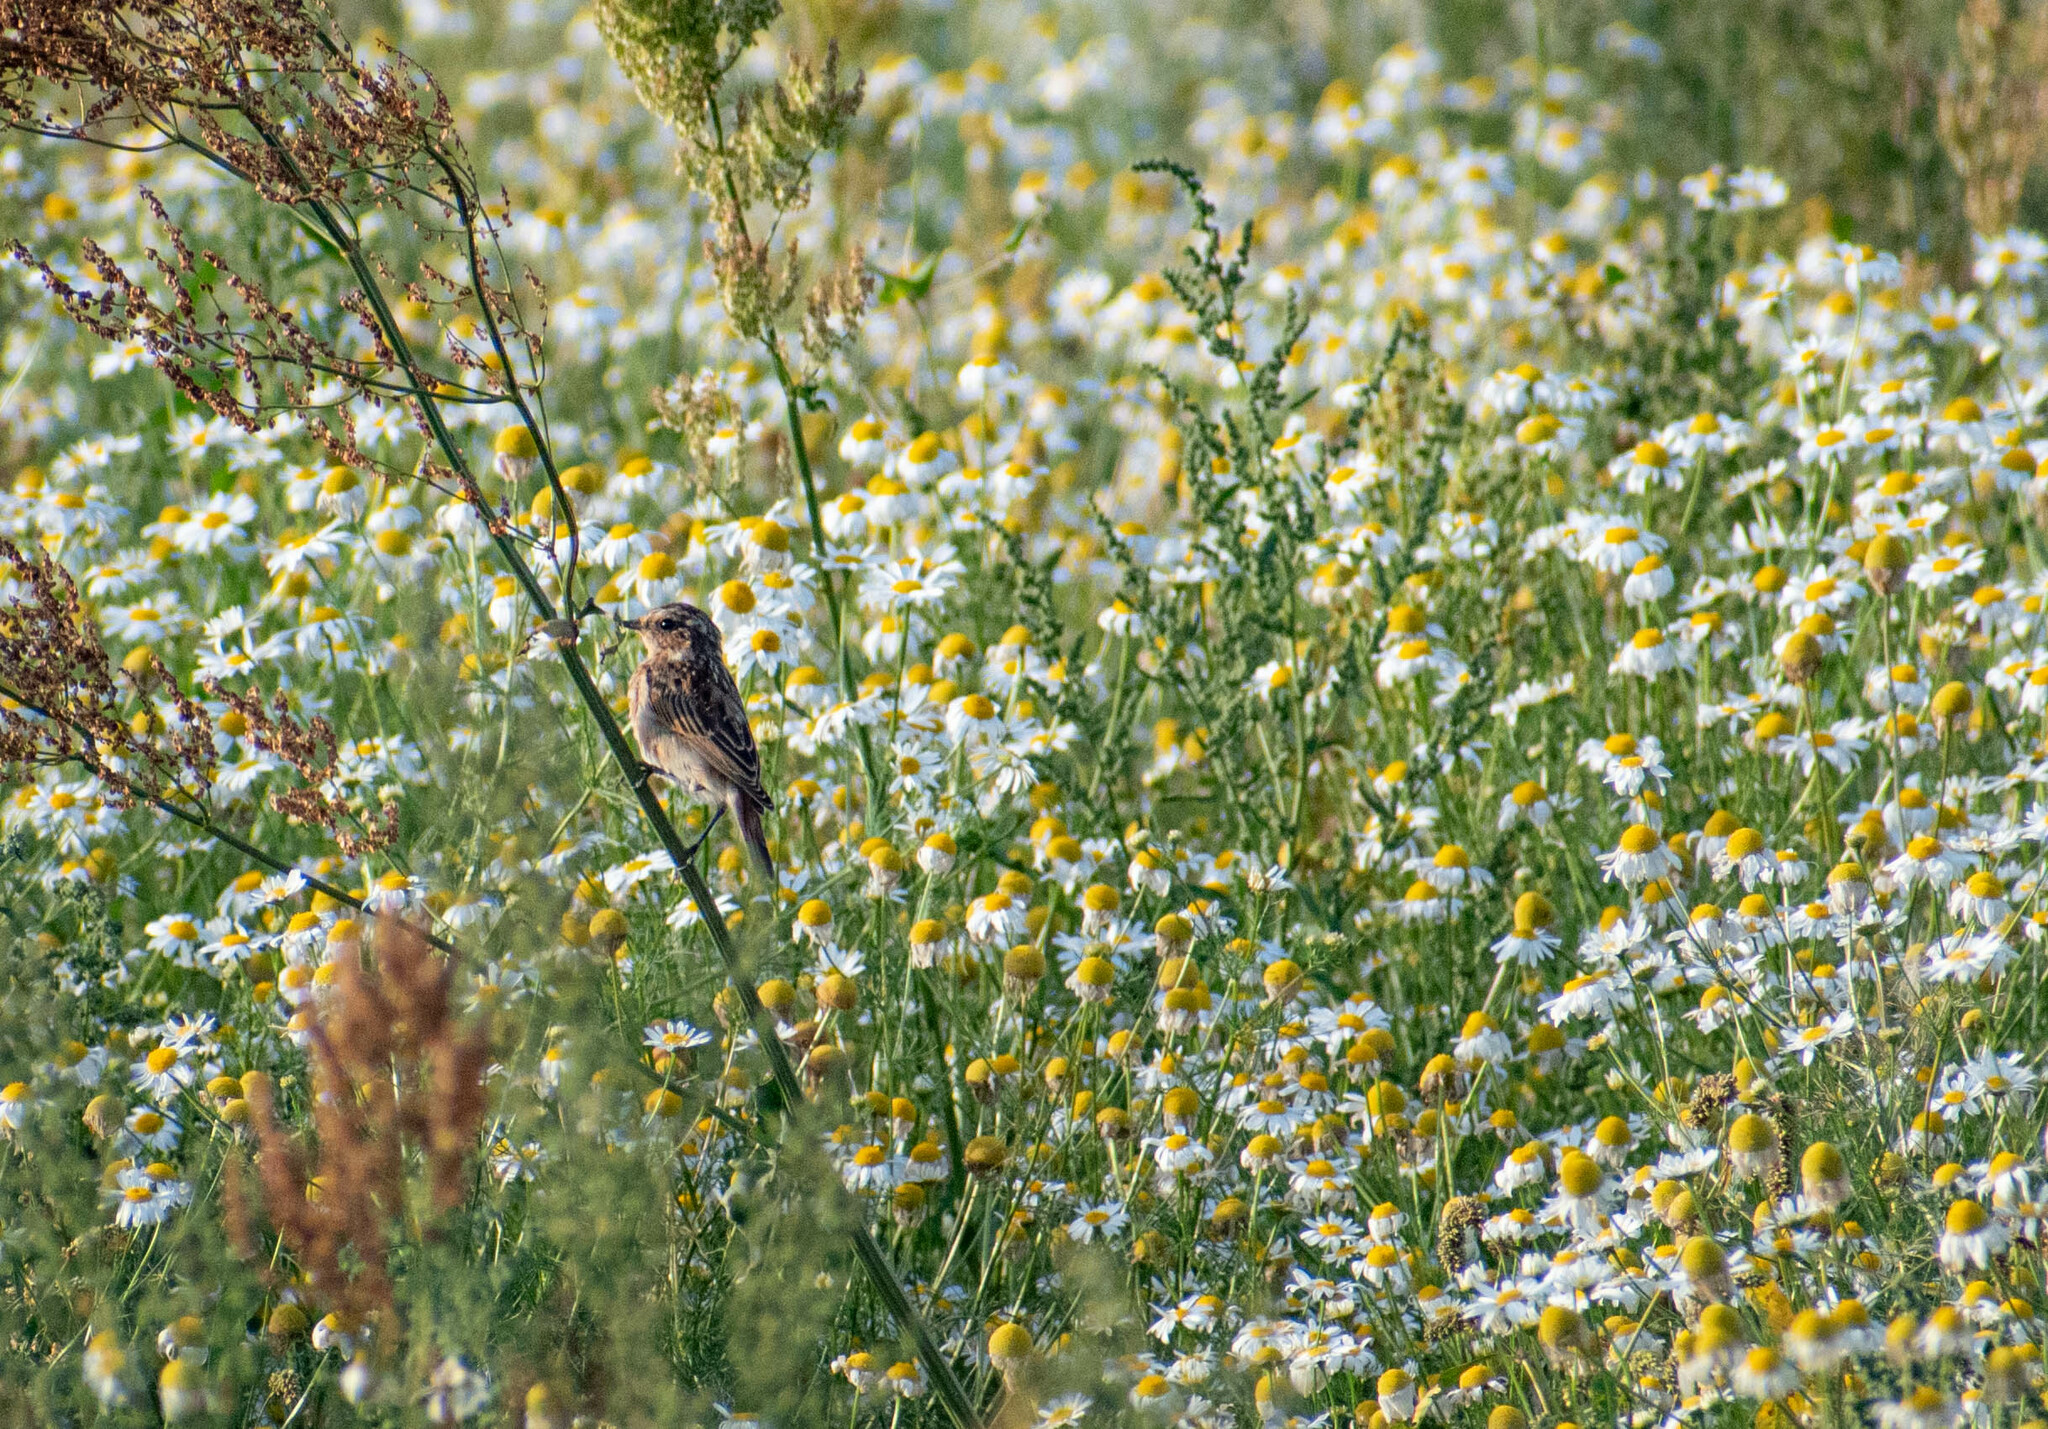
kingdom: Animalia
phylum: Chordata
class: Aves
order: Passeriformes
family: Muscicapidae
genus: Saxicola
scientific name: Saxicola rubetra
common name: Whinchat
